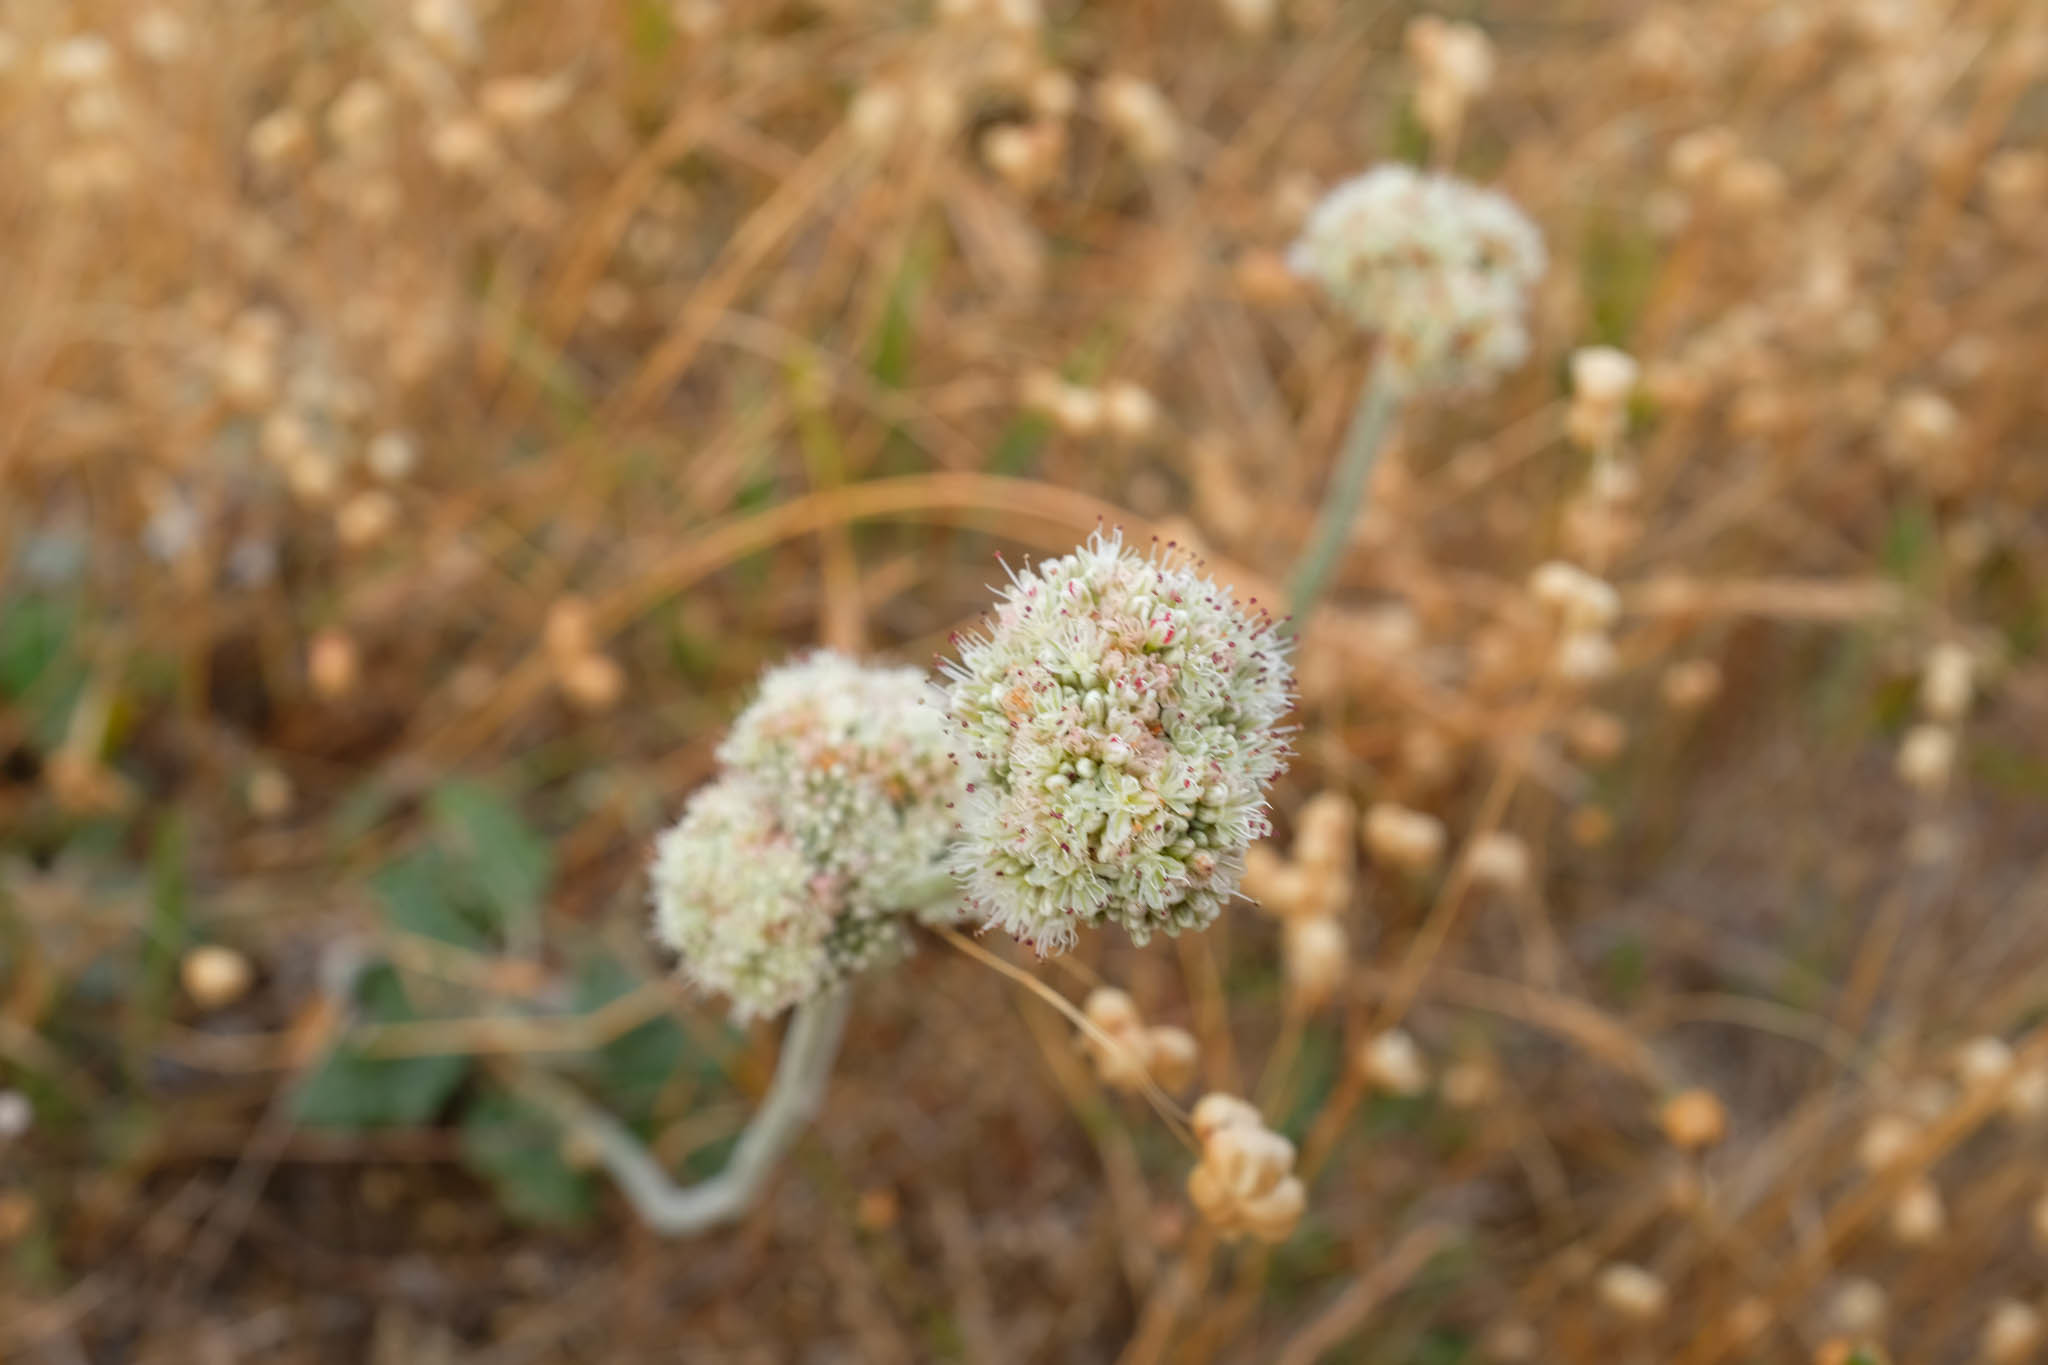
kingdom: Plantae
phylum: Tracheophyta
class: Magnoliopsida
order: Caryophyllales
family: Polygonaceae
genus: Eriogonum
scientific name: Eriogonum latifolium
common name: Seaside wild buckwheat
